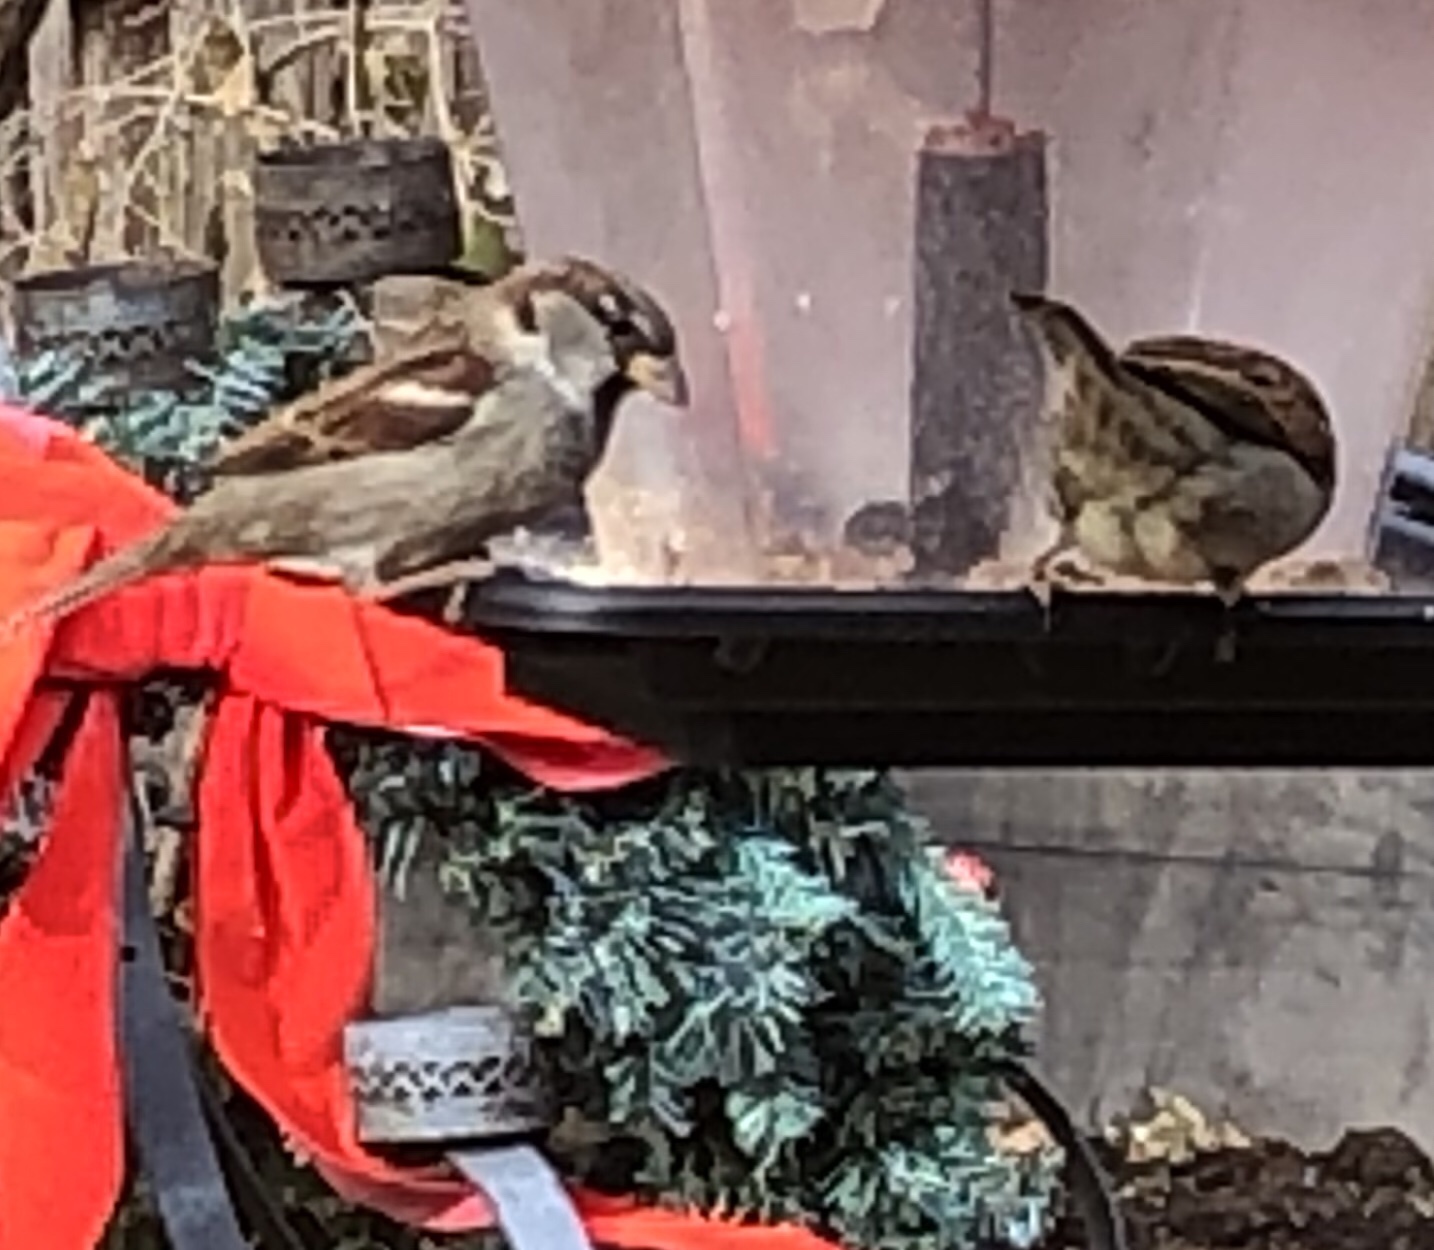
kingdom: Animalia
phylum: Chordata
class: Aves
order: Passeriformes
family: Passeridae
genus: Passer
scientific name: Passer domesticus
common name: House sparrow
